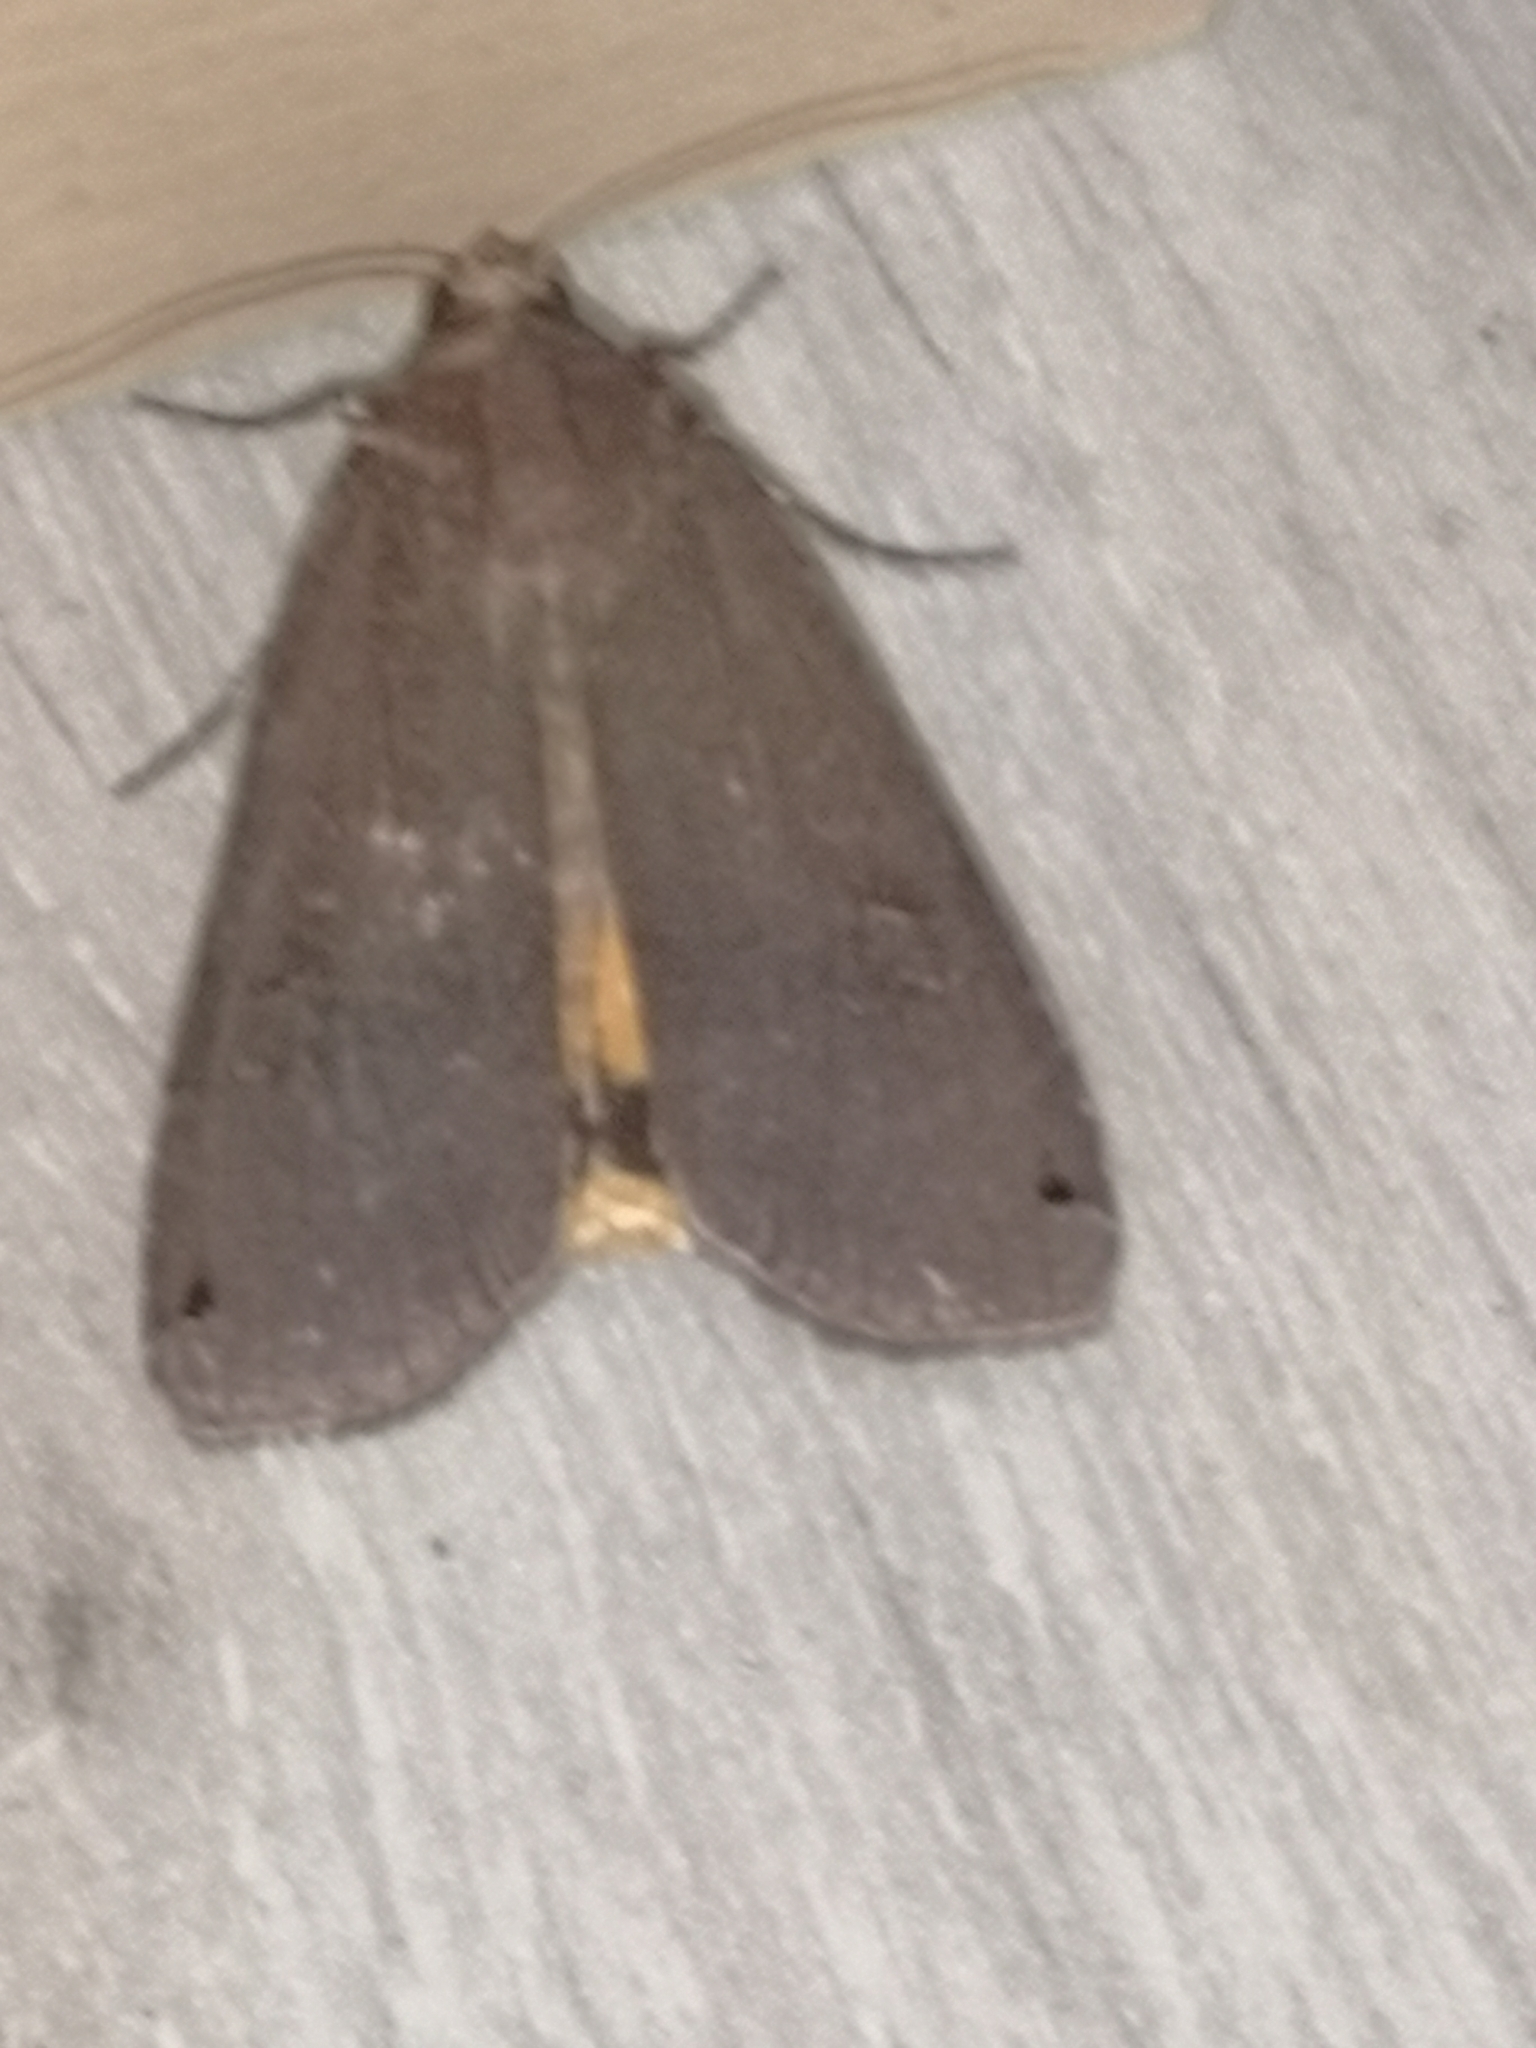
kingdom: Animalia
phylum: Arthropoda
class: Insecta
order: Lepidoptera
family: Noctuidae
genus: Noctua
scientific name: Noctua pronuba
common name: Large yellow underwing
